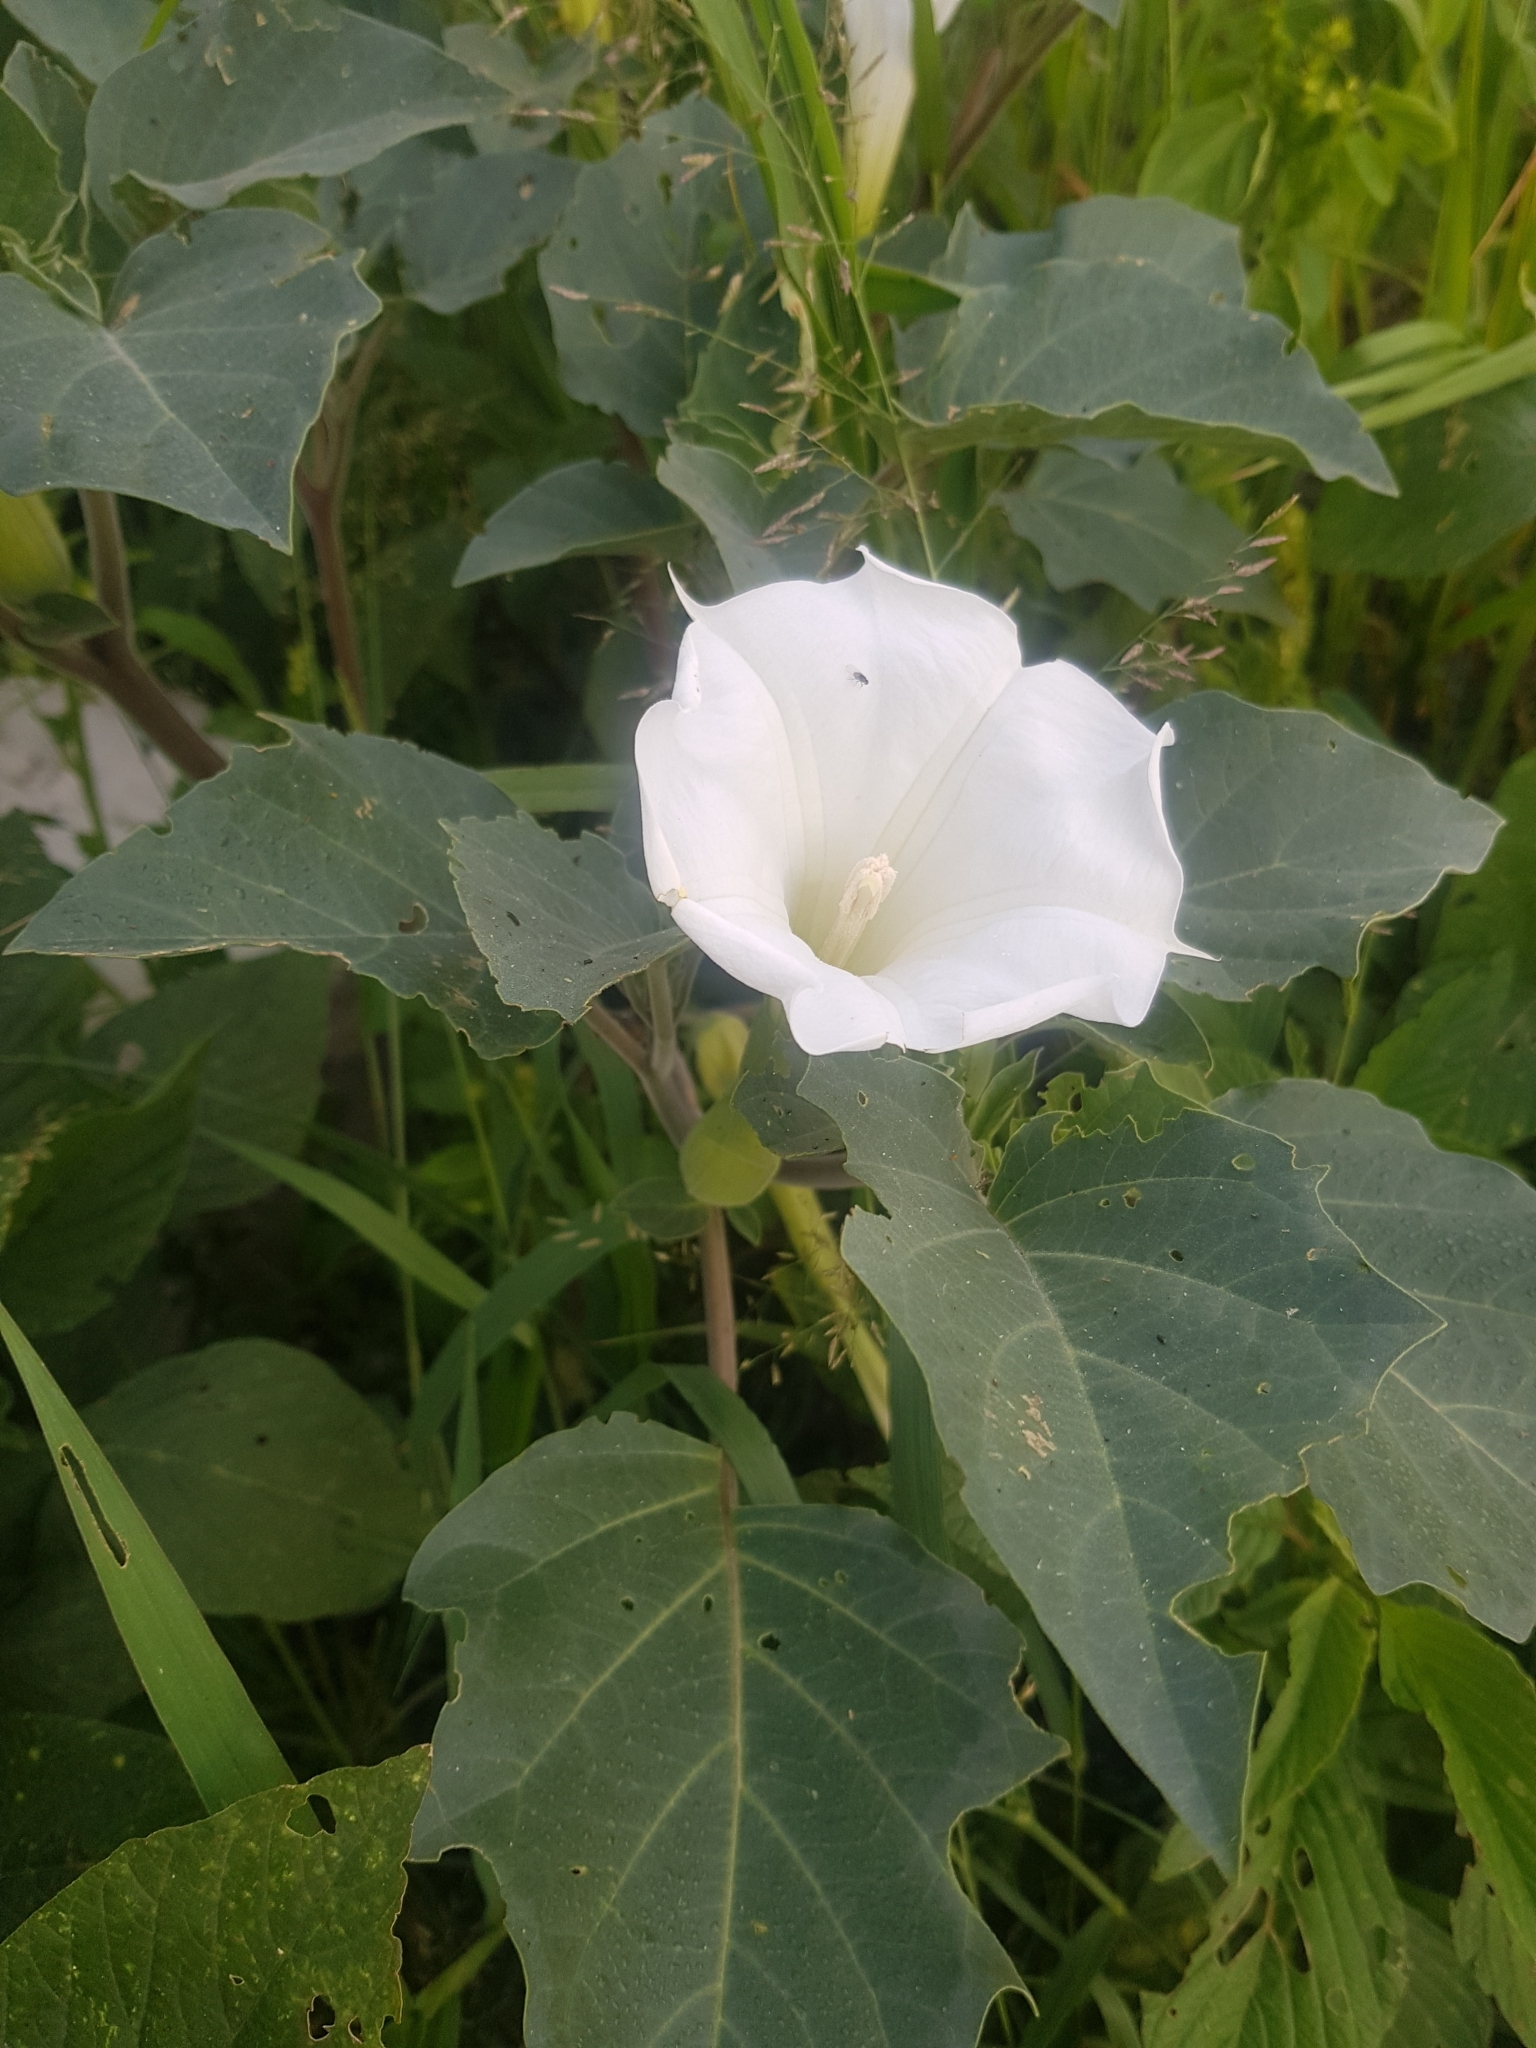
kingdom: Plantae
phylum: Tracheophyta
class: Magnoliopsida
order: Solanales
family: Solanaceae
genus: Datura
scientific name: Datura innoxia
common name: Downy thorn-apple
